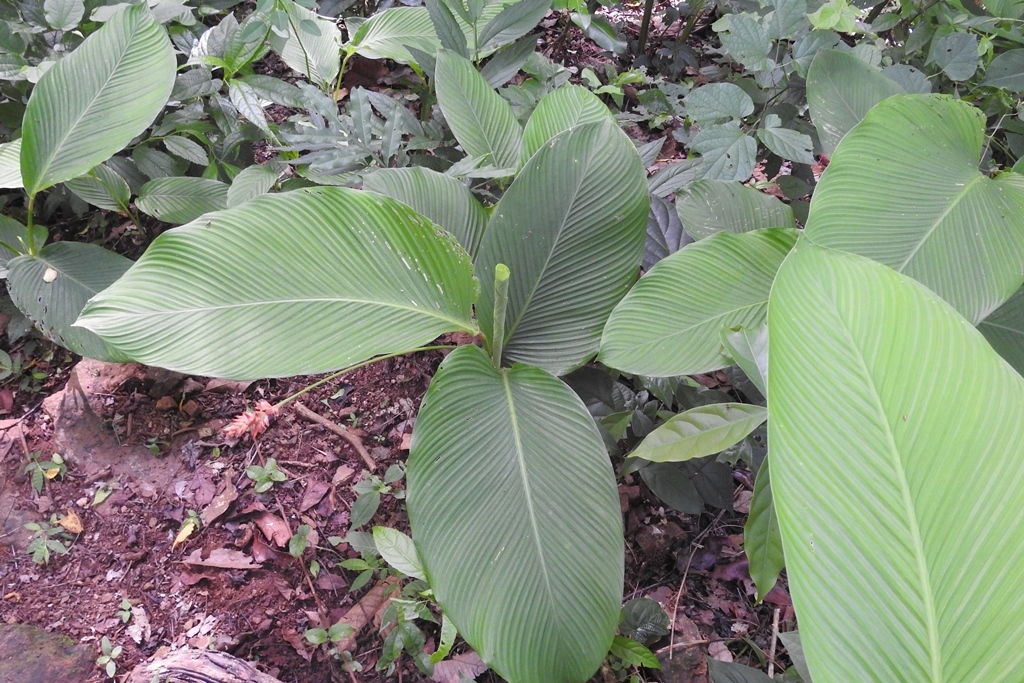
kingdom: Plantae
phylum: Tracheophyta
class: Liliopsida
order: Zingiberales
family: Marantaceae
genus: Goeppertia
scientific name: Goeppertia coccinea
